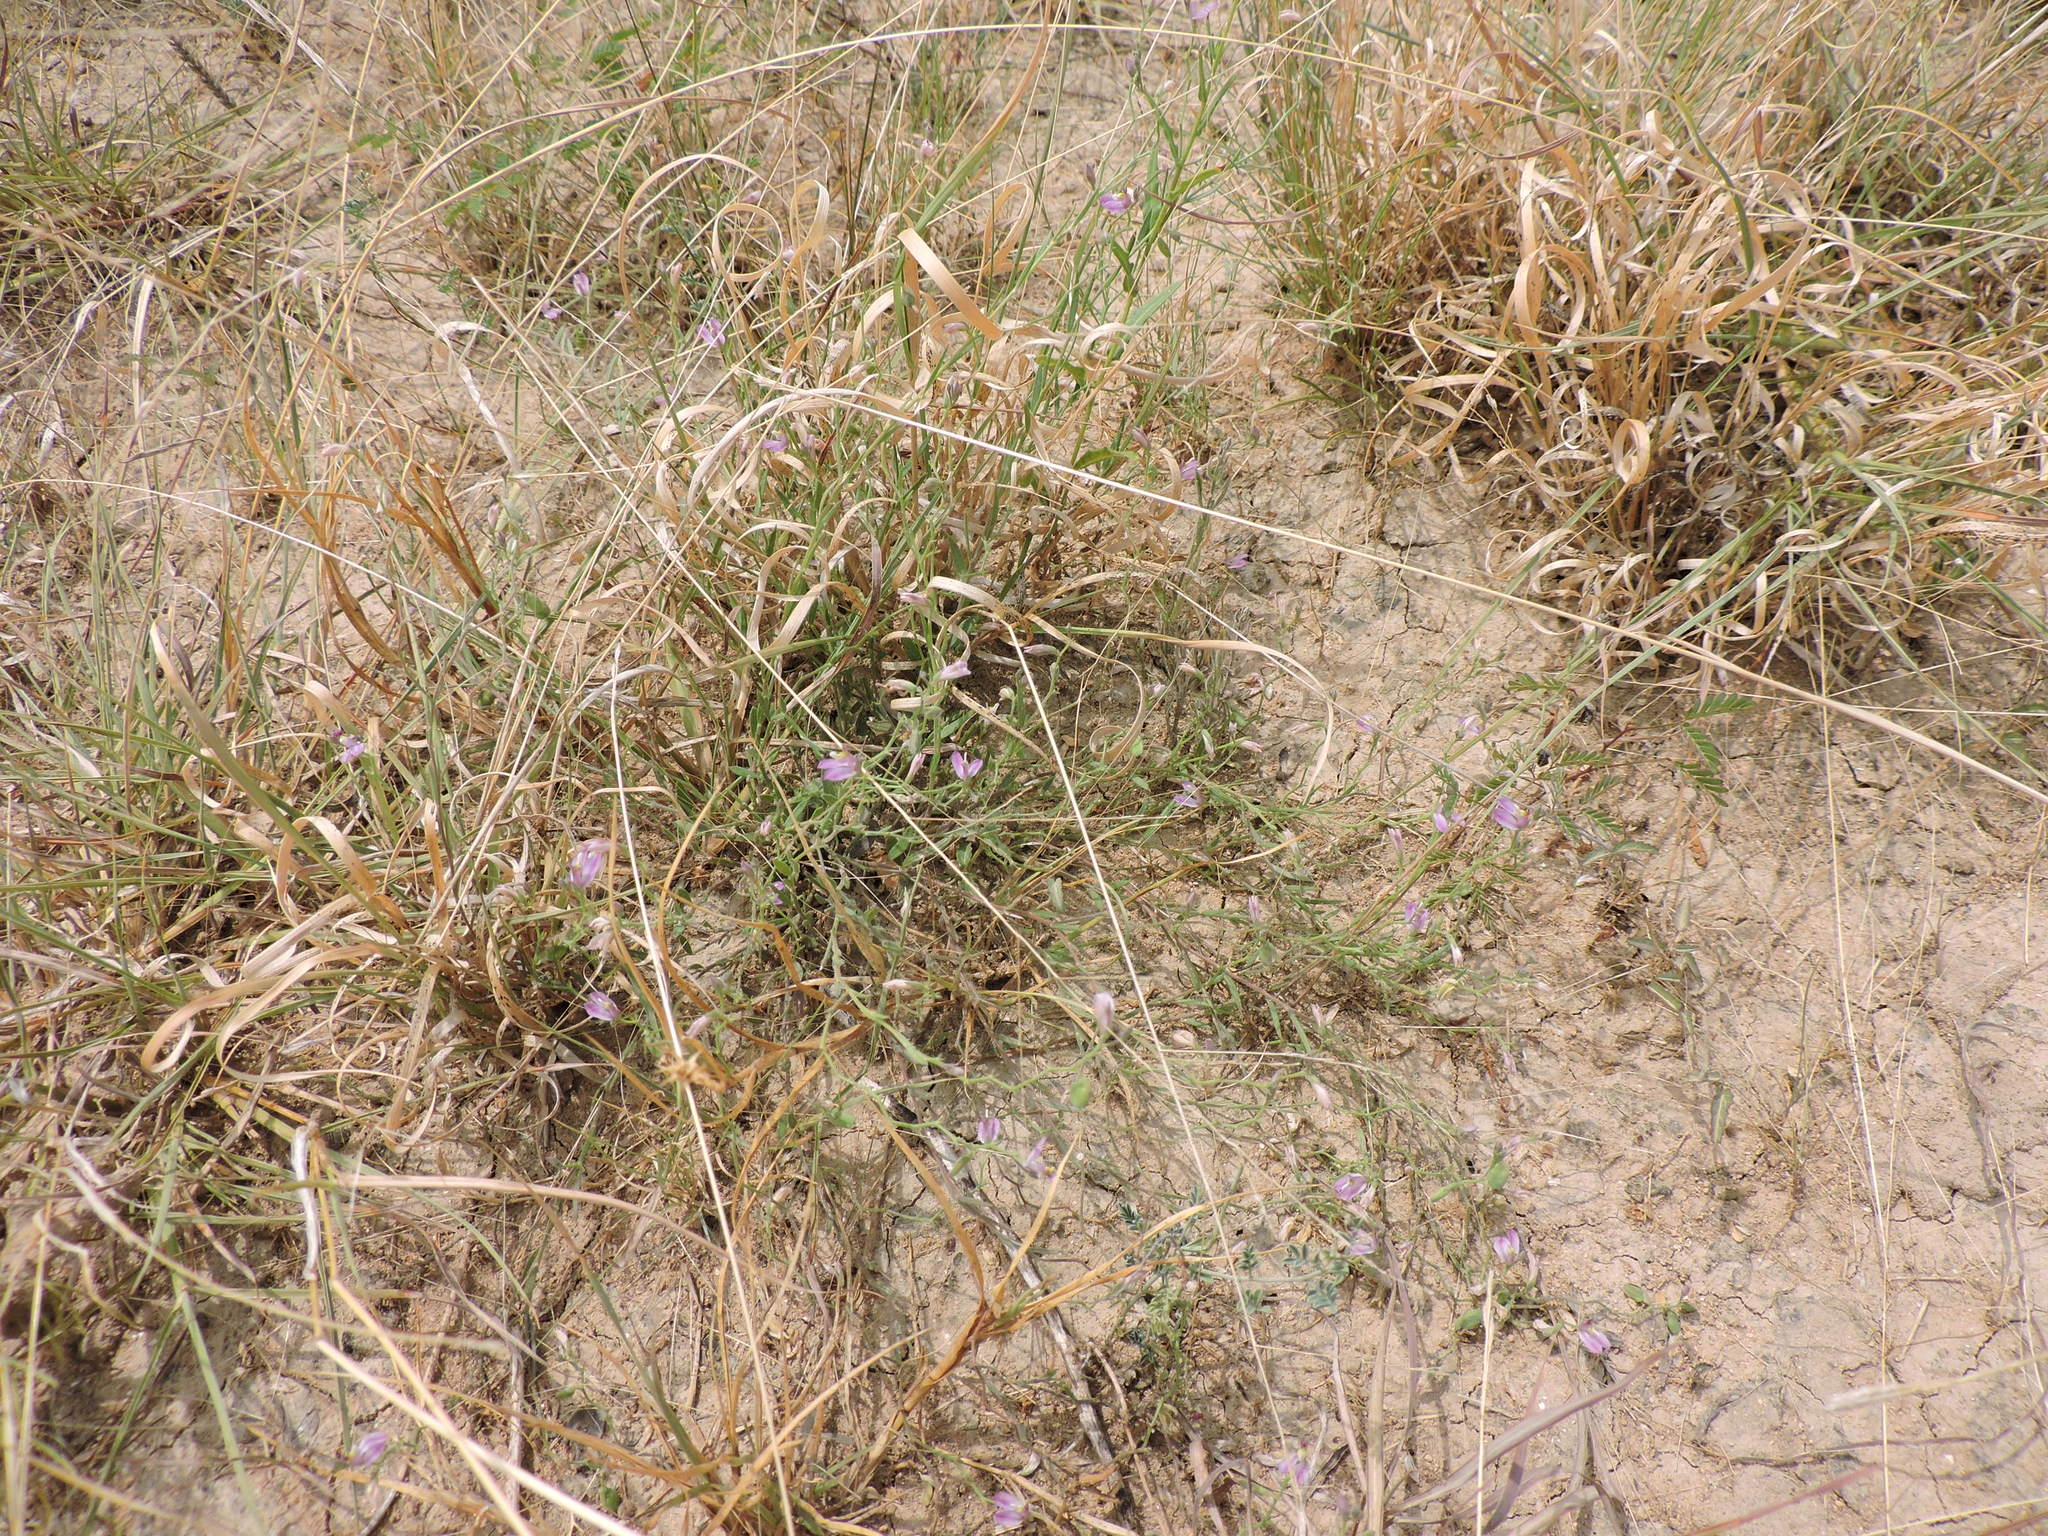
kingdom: Plantae
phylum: Tracheophyta
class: Magnoliopsida
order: Fabales
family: Polygalaceae
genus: Rhinotropis
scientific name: Rhinotropis lindheimeri
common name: Shrubby milkwort
